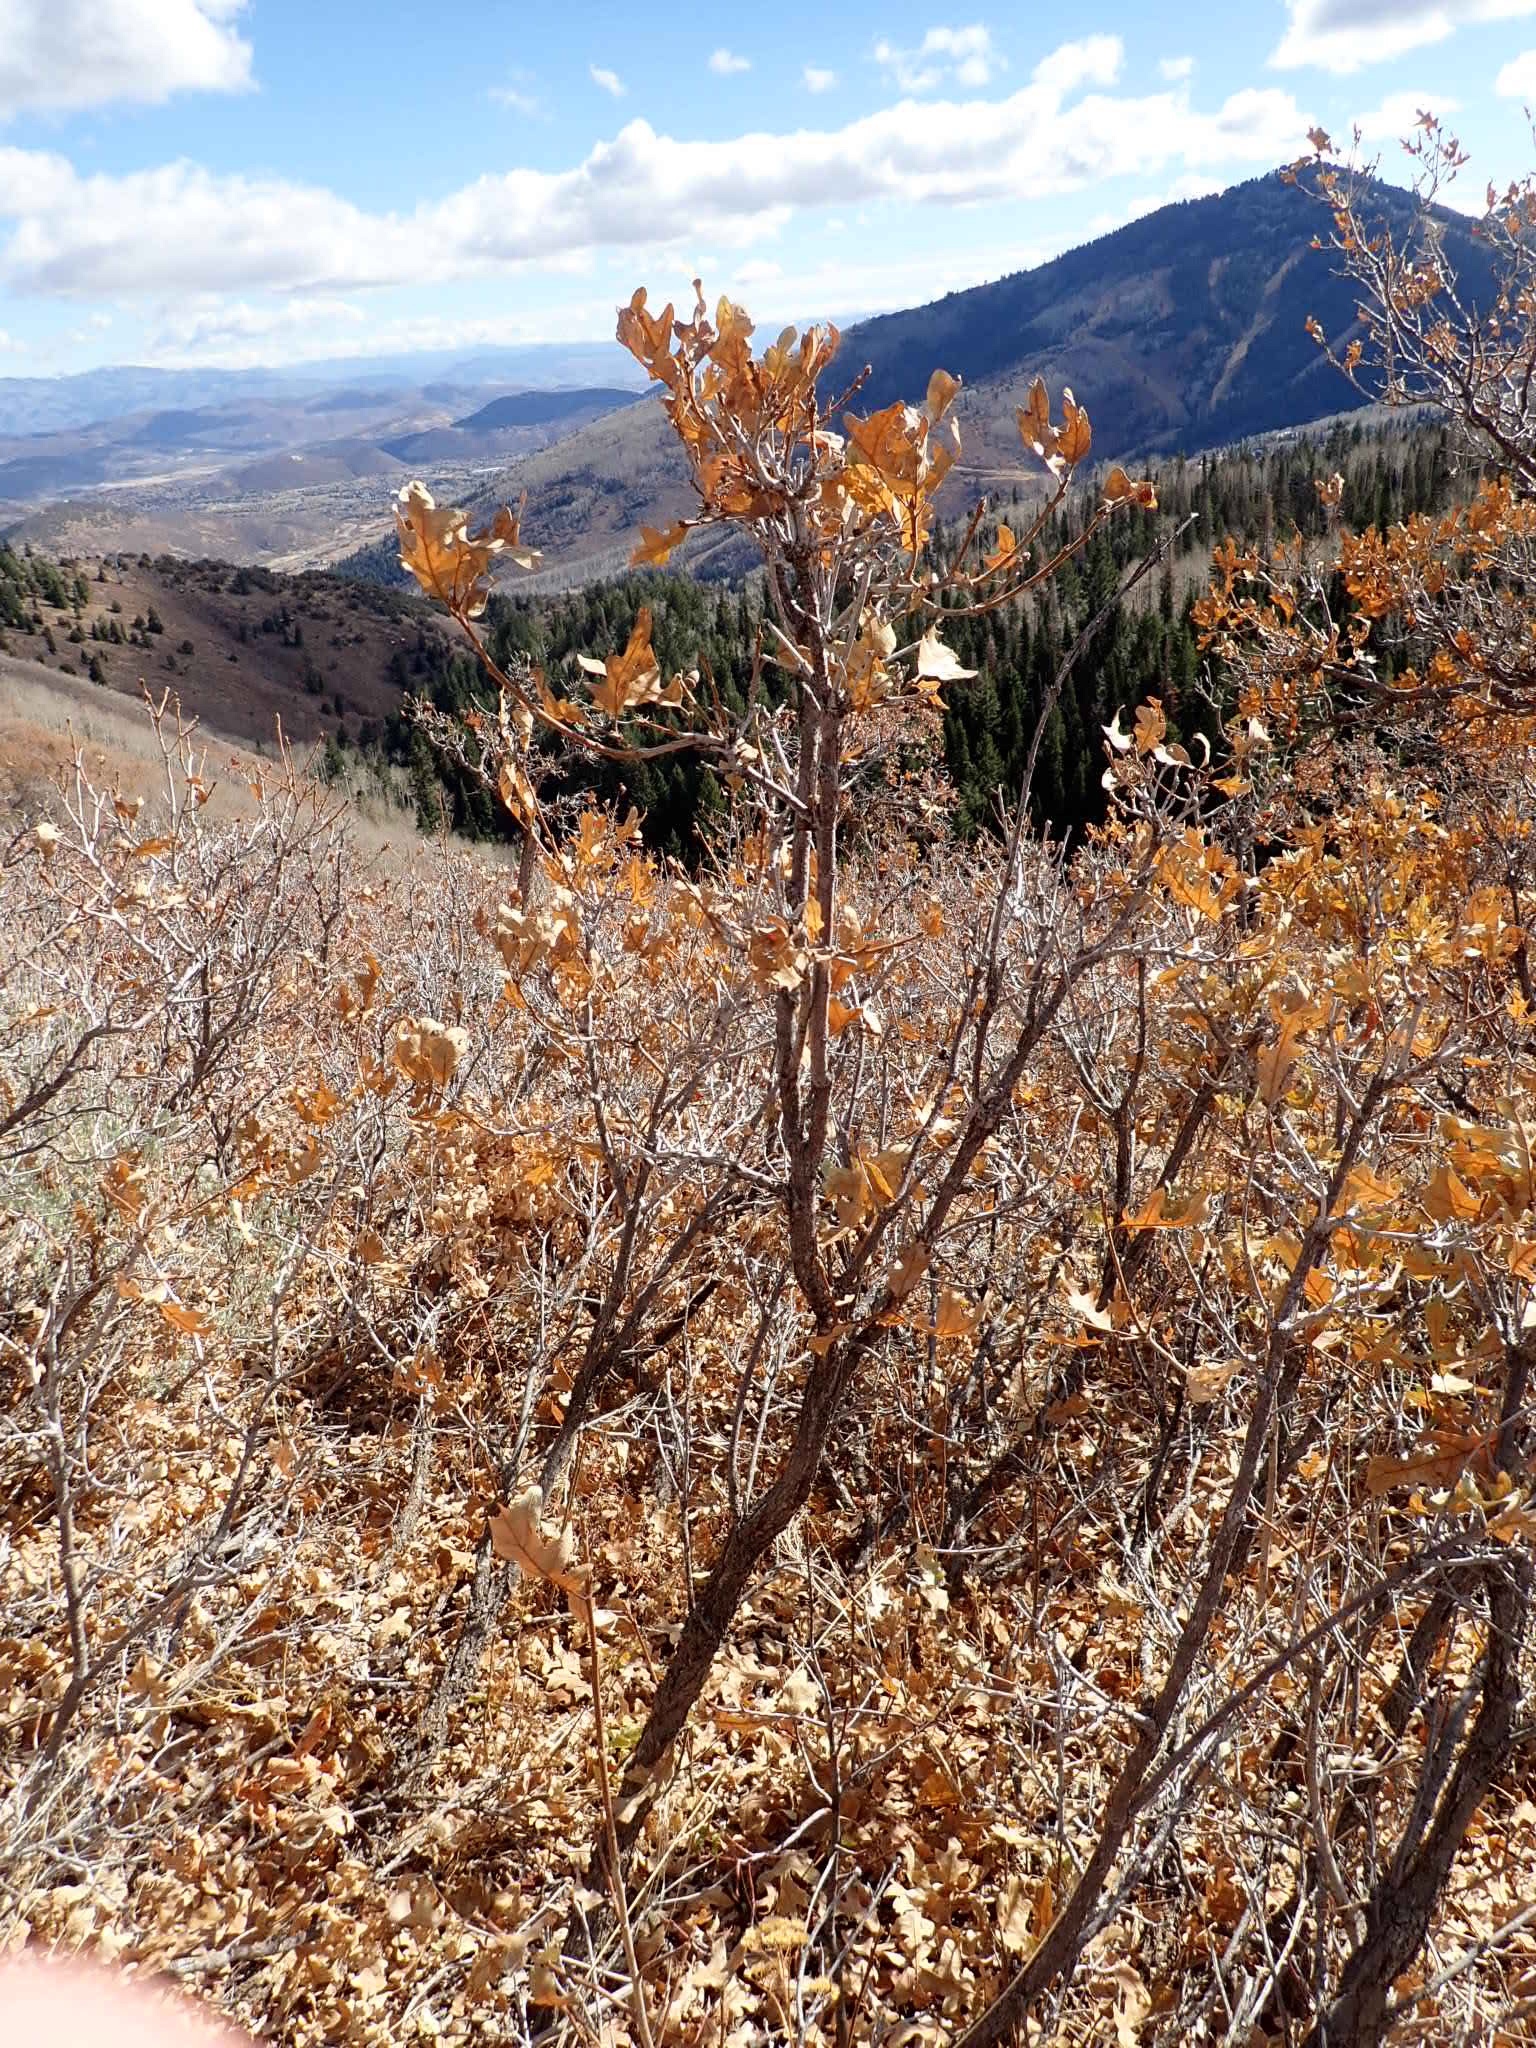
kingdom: Plantae
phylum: Tracheophyta
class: Magnoliopsida
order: Fagales
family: Fagaceae
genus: Quercus
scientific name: Quercus gambelii
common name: Gambel oak
